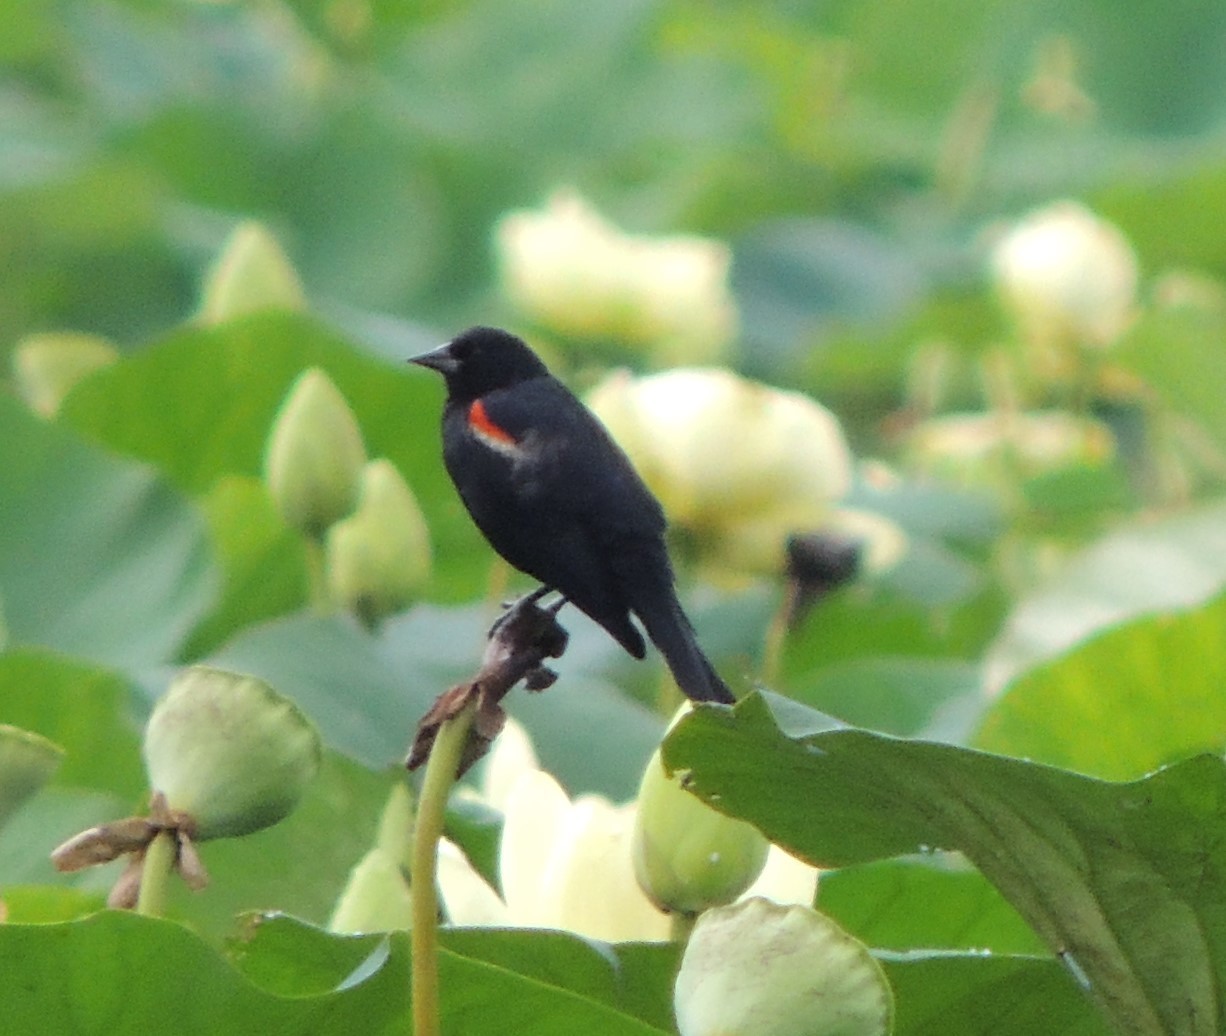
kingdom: Animalia
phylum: Chordata
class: Aves
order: Passeriformes
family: Icteridae
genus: Agelaius
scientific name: Agelaius phoeniceus
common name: Red-winged blackbird
